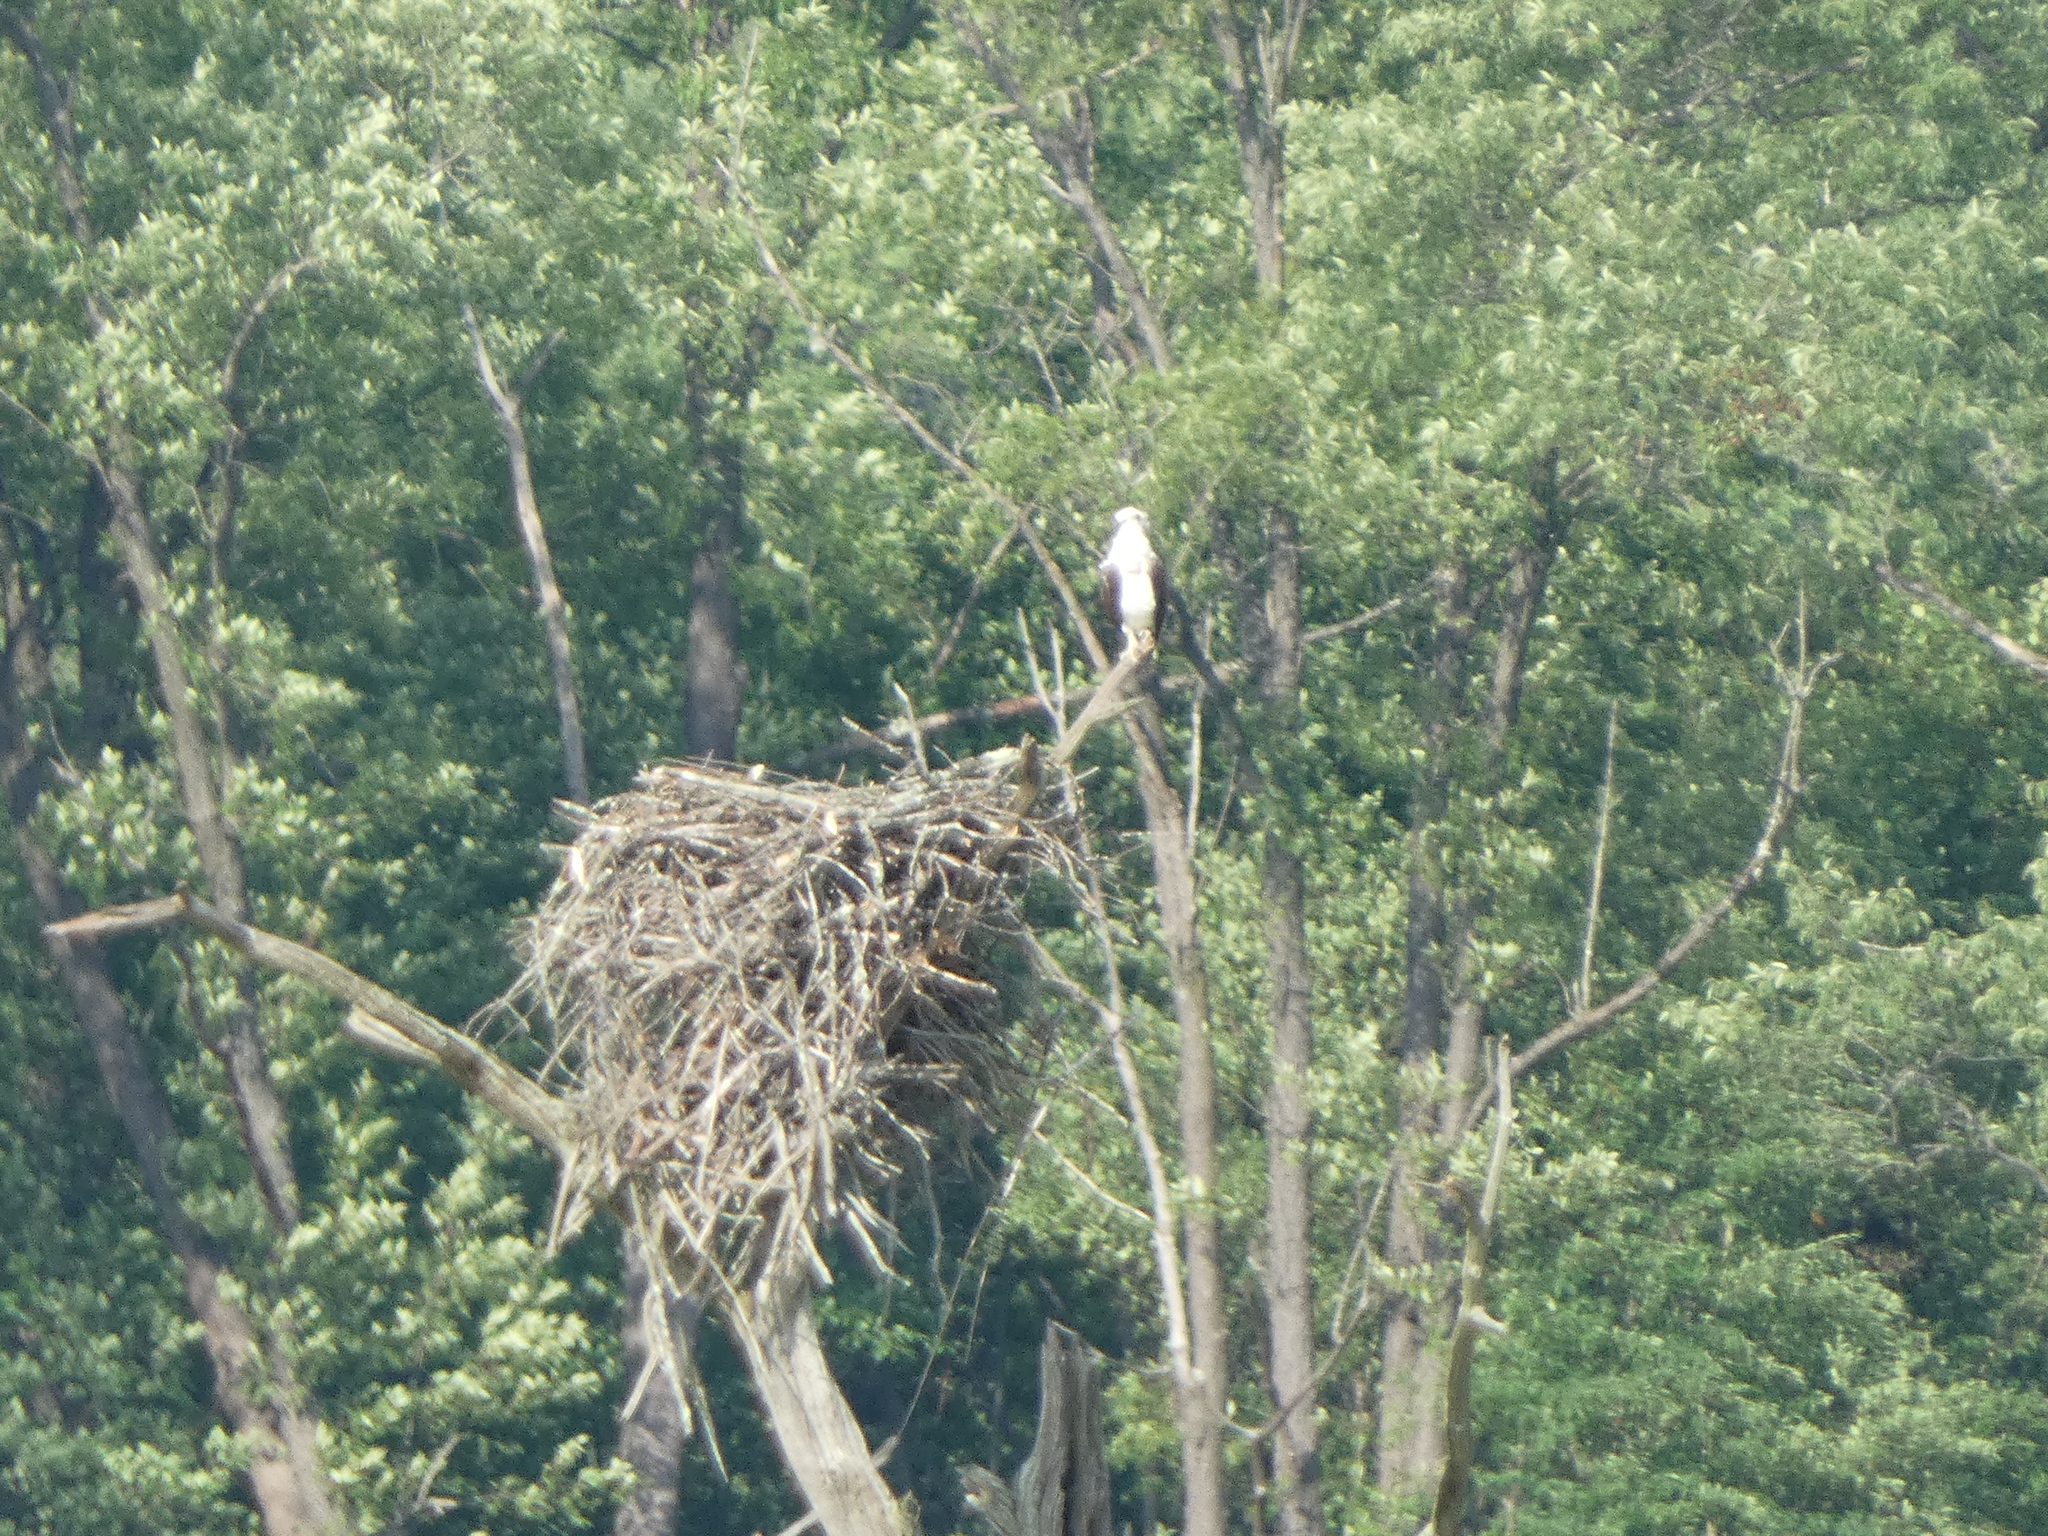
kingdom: Animalia
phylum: Chordata
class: Aves
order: Accipitriformes
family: Pandionidae
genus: Pandion
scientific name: Pandion haliaetus
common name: Osprey
